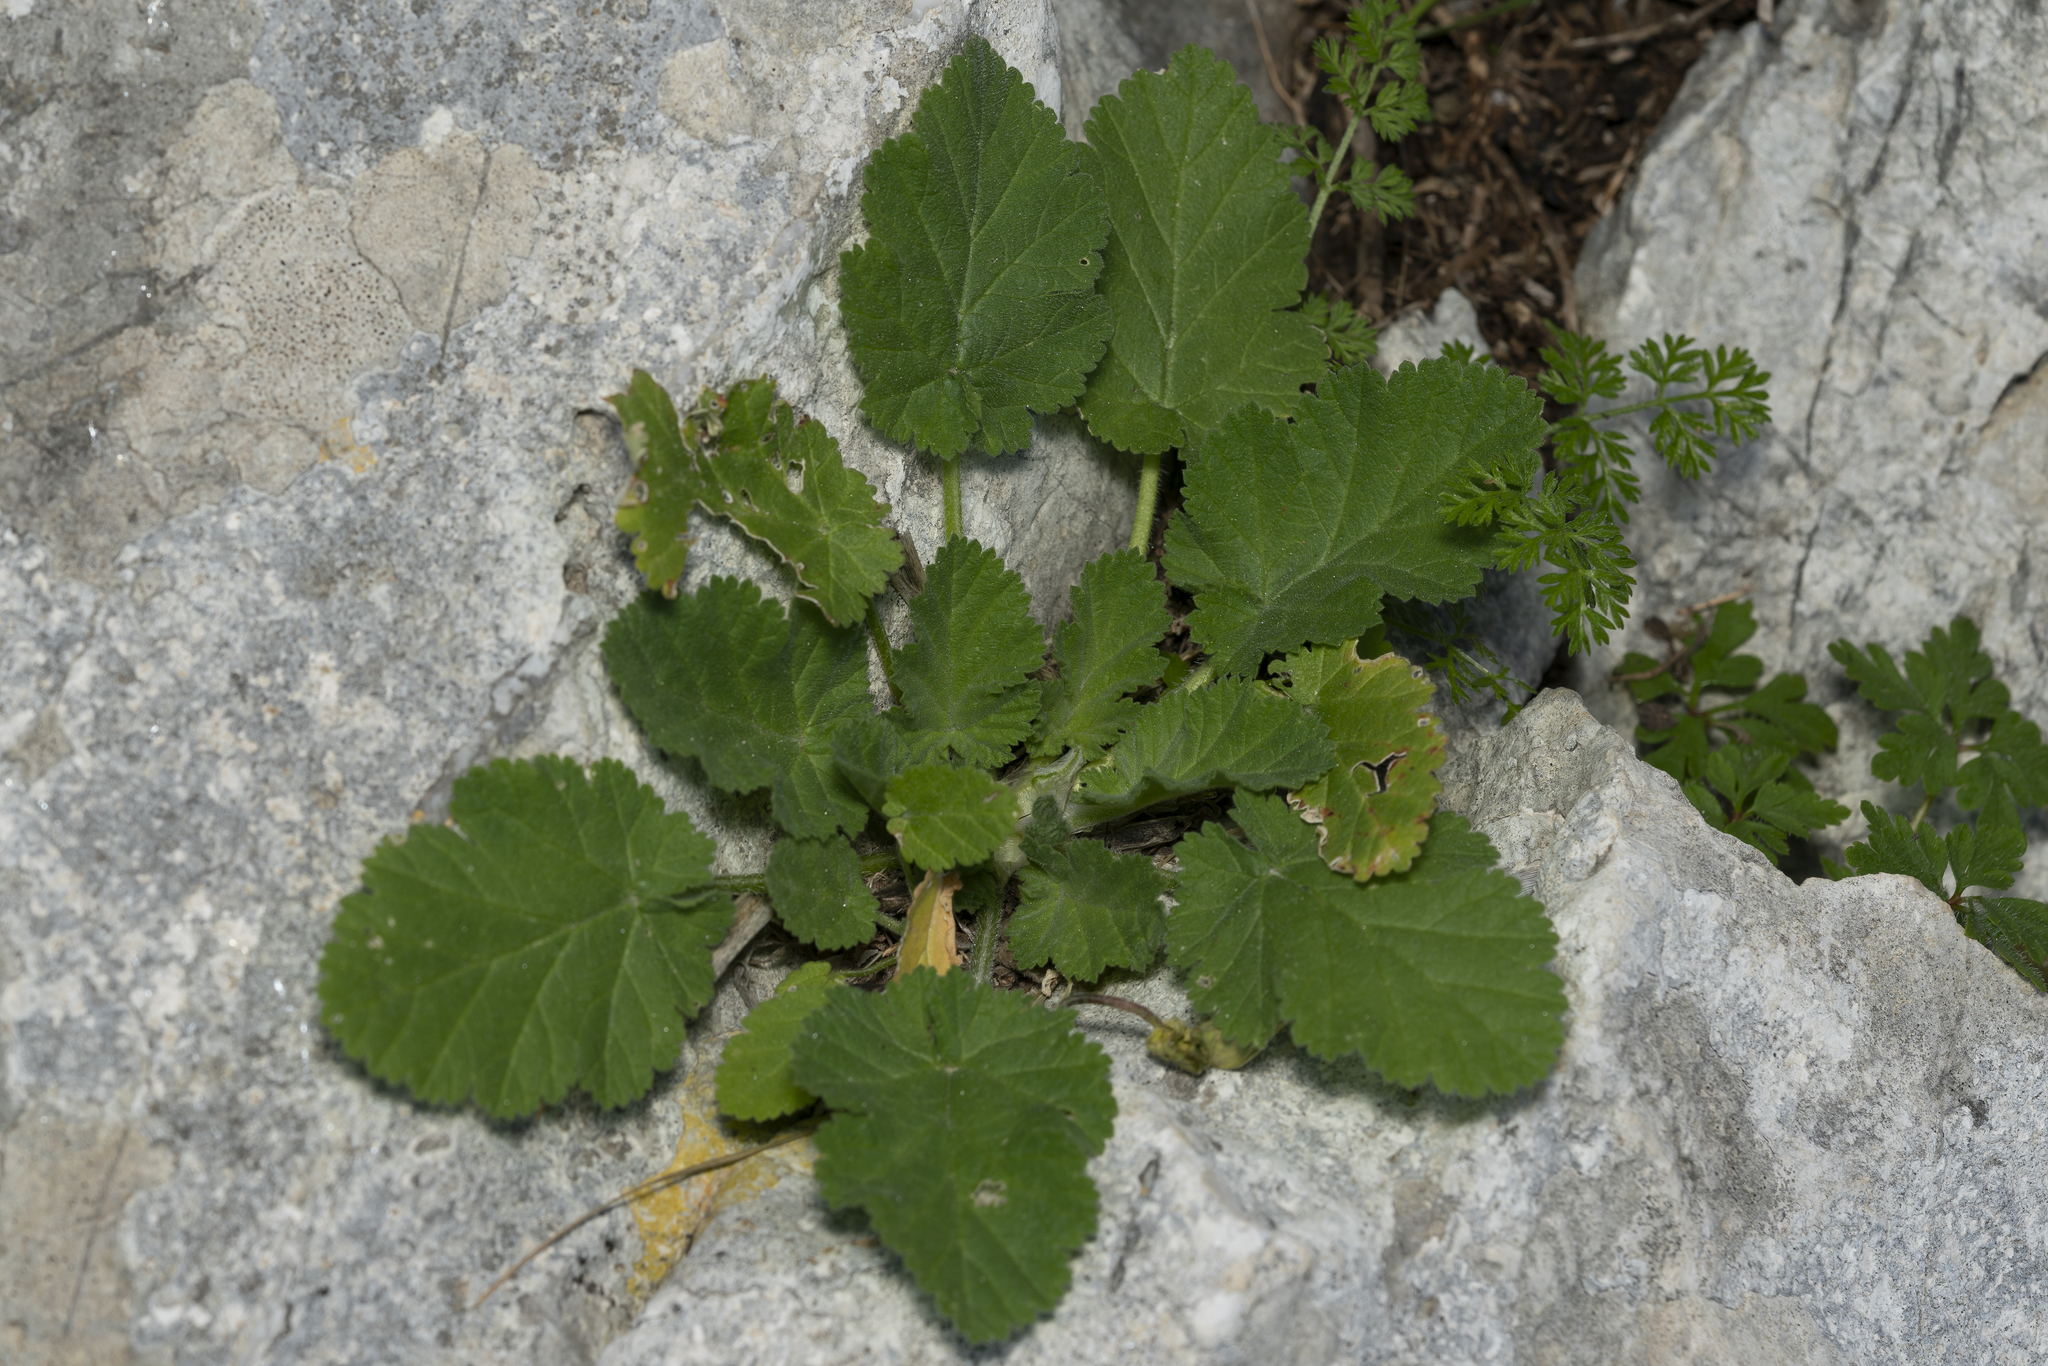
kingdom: Plantae
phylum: Tracheophyta
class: Magnoliopsida
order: Geraniales
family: Geraniaceae
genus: Erodium
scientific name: Erodium malacoides
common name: Soft stork's-bill
